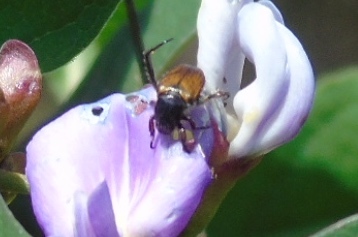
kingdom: Animalia
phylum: Arthropoda
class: Insecta
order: Coleoptera
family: Scarabaeidae
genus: Strigoderma
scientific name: Strigoderma
